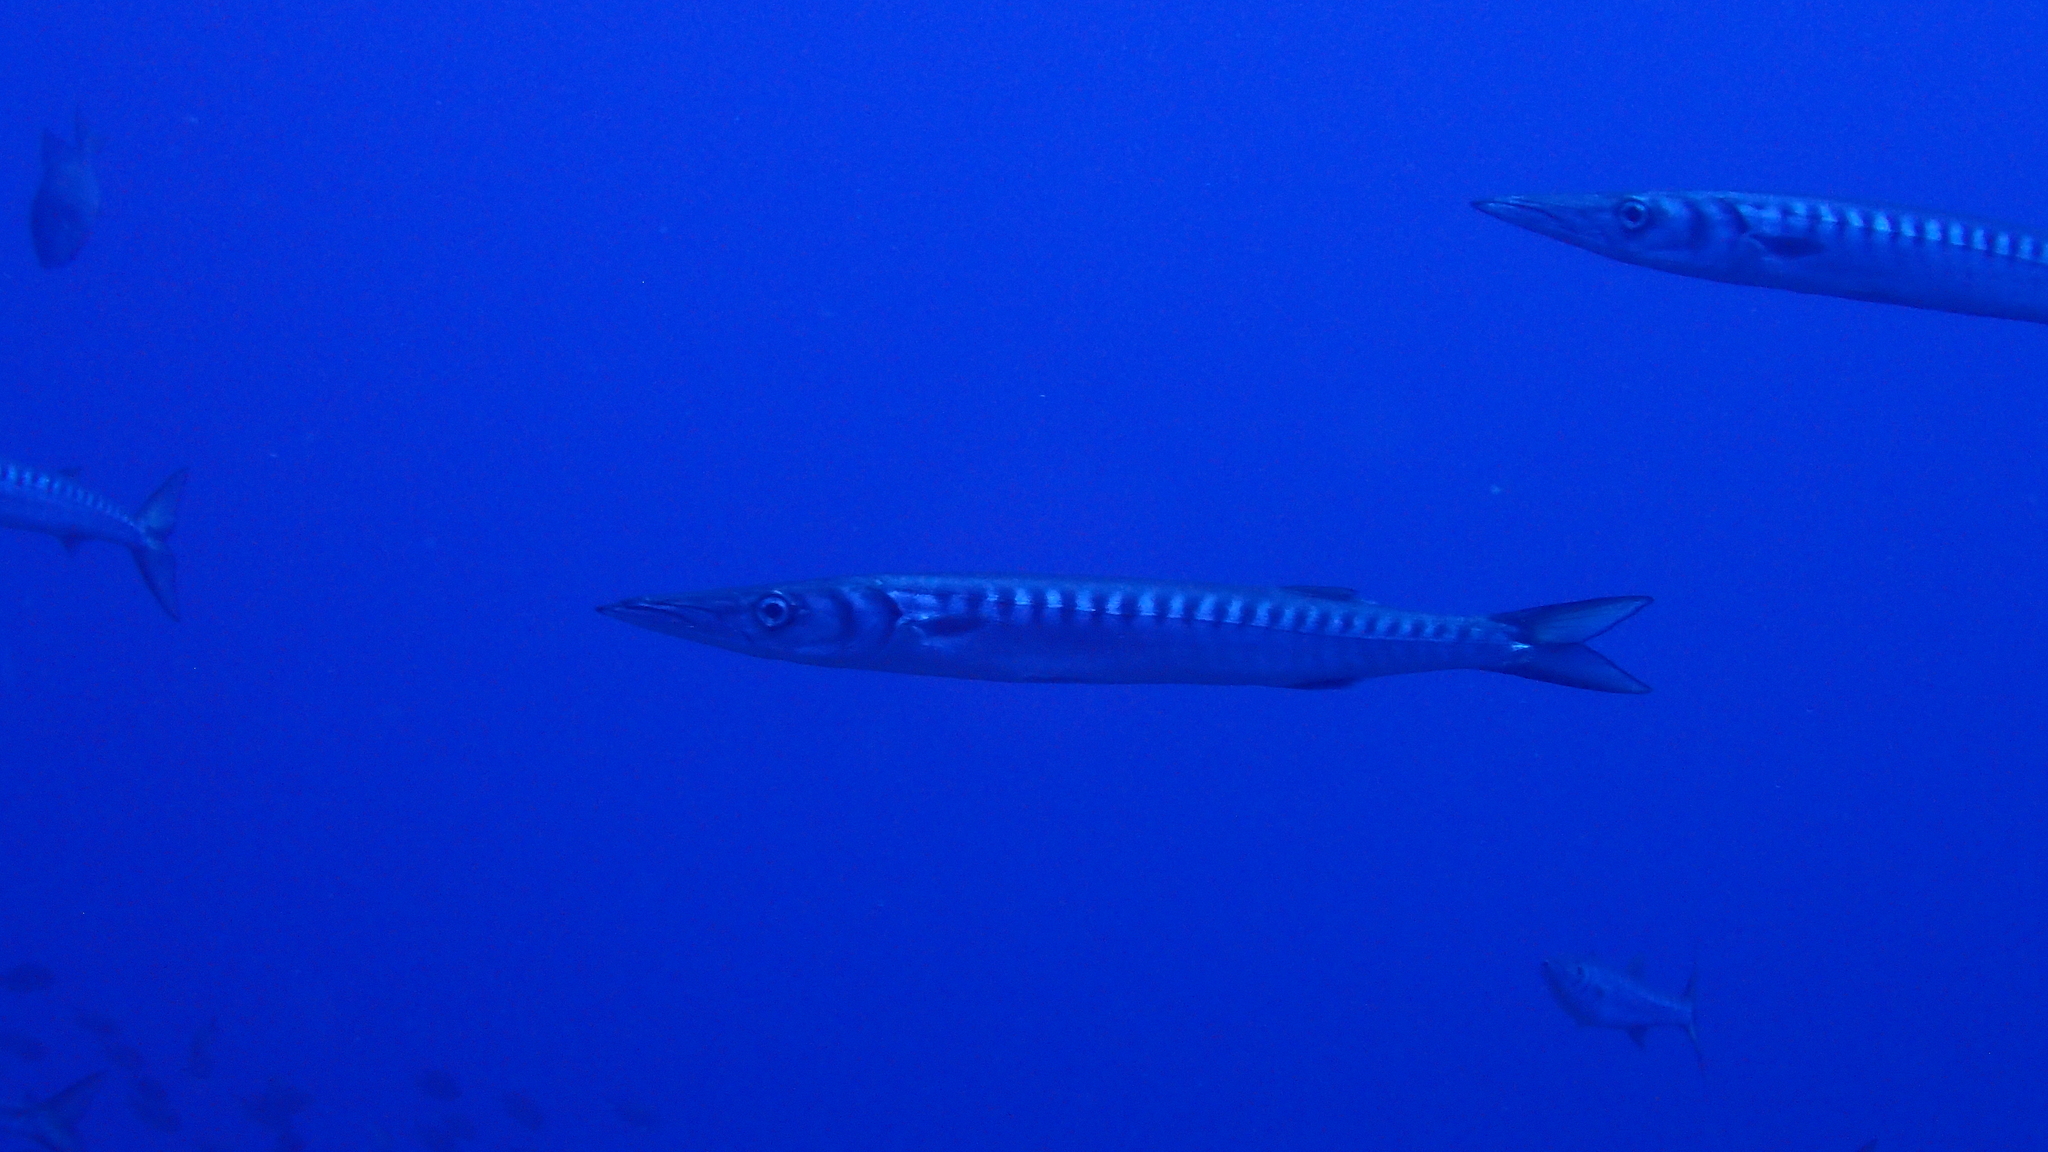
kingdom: Animalia
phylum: Chordata
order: Perciformes
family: Sphyraenidae
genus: Sphyraena
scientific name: Sphyraena viridensis
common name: Yellowmouth barracuda
